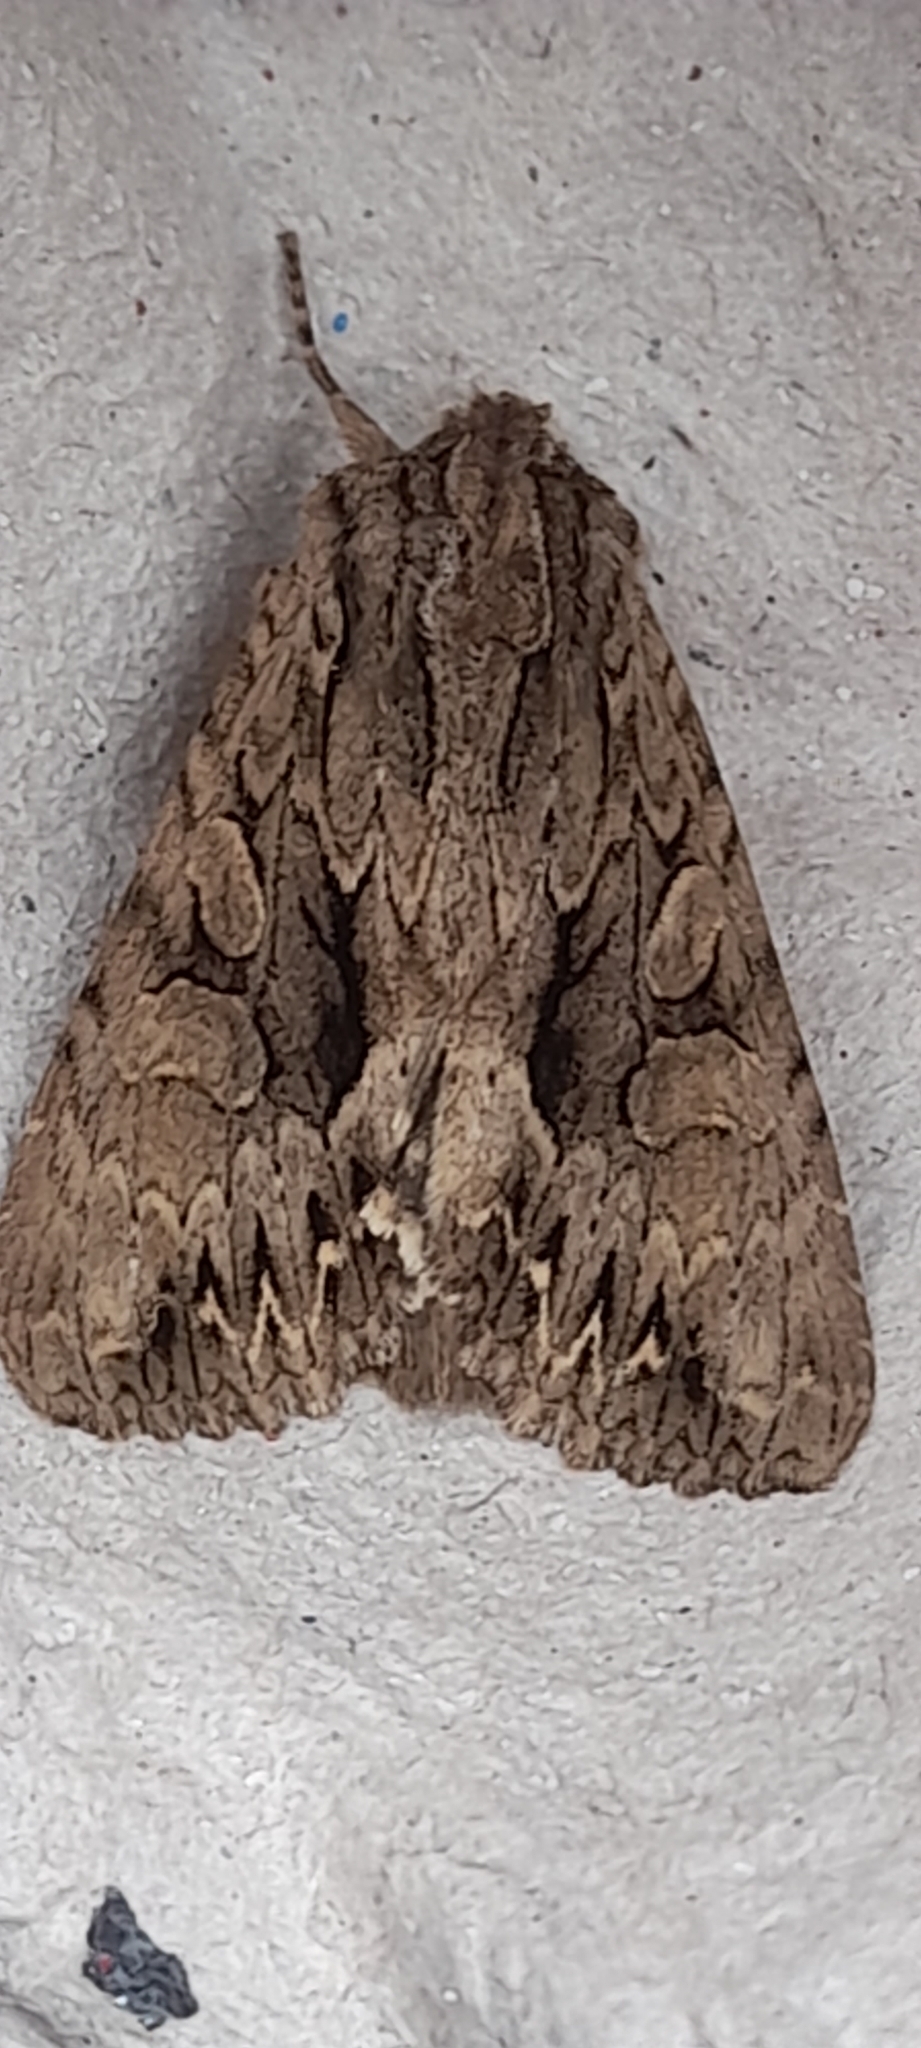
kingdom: Animalia
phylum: Arthropoda
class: Insecta
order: Lepidoptera
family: Noctuidae
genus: Apamea
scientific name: Apamea monoglypha
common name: Dark arches
